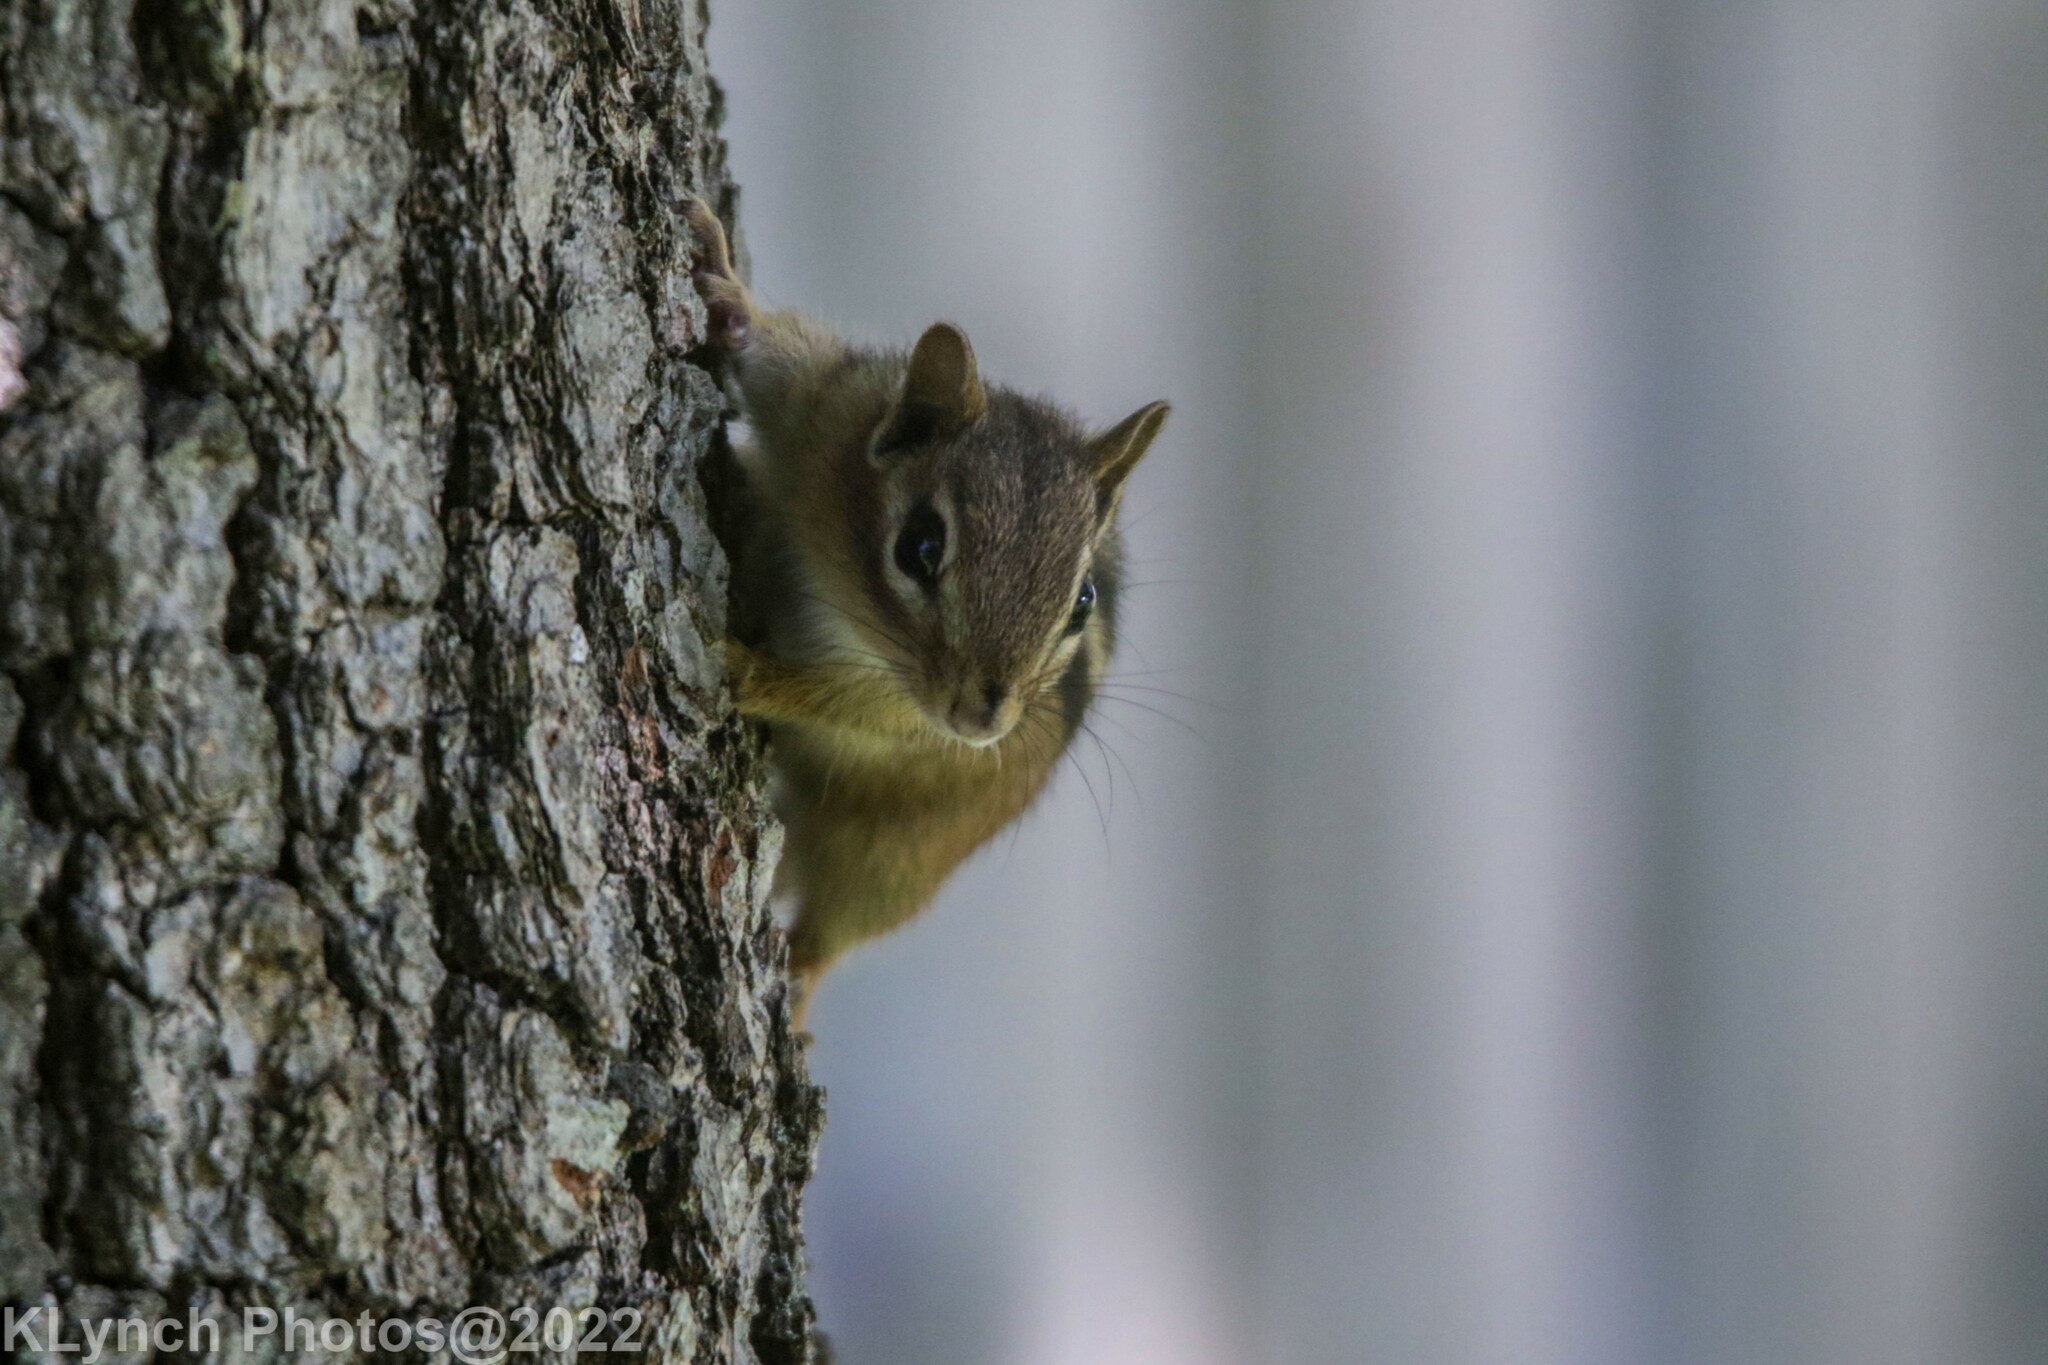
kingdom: Animalia
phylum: Chordata
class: Mammalia
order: Rodentia
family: Sciuridae
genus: Tamias
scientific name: Tamias striatus
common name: Eastern chipmunk
